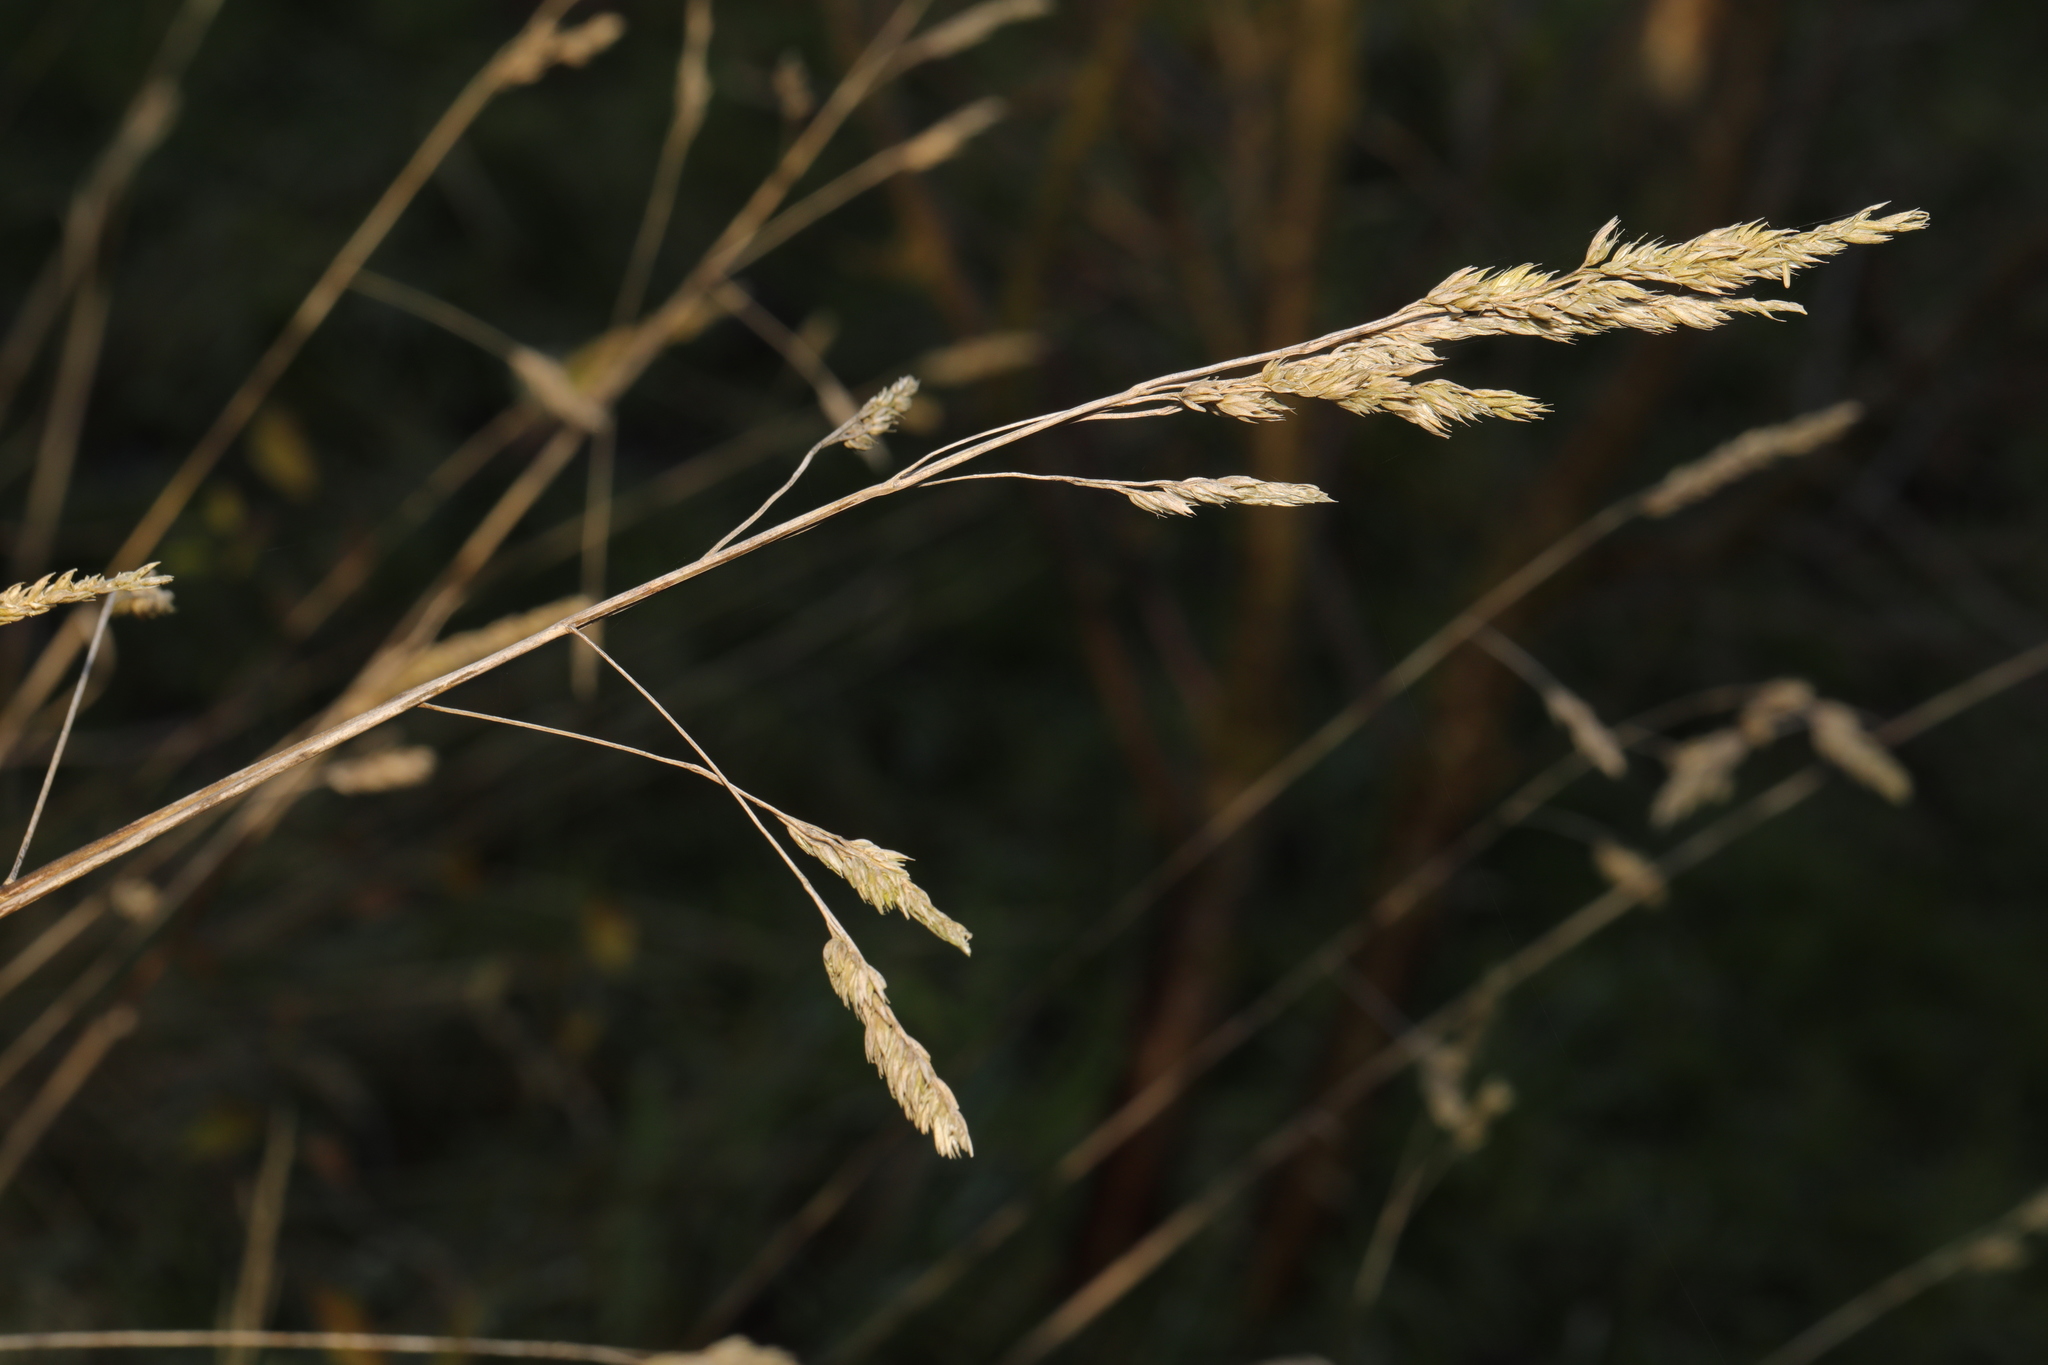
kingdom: Plantae
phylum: Tracheophyta
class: Liliopsida
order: Poales
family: Poaceae
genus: Dactylis
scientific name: Dactylis glomerata
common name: Orchardgrass
